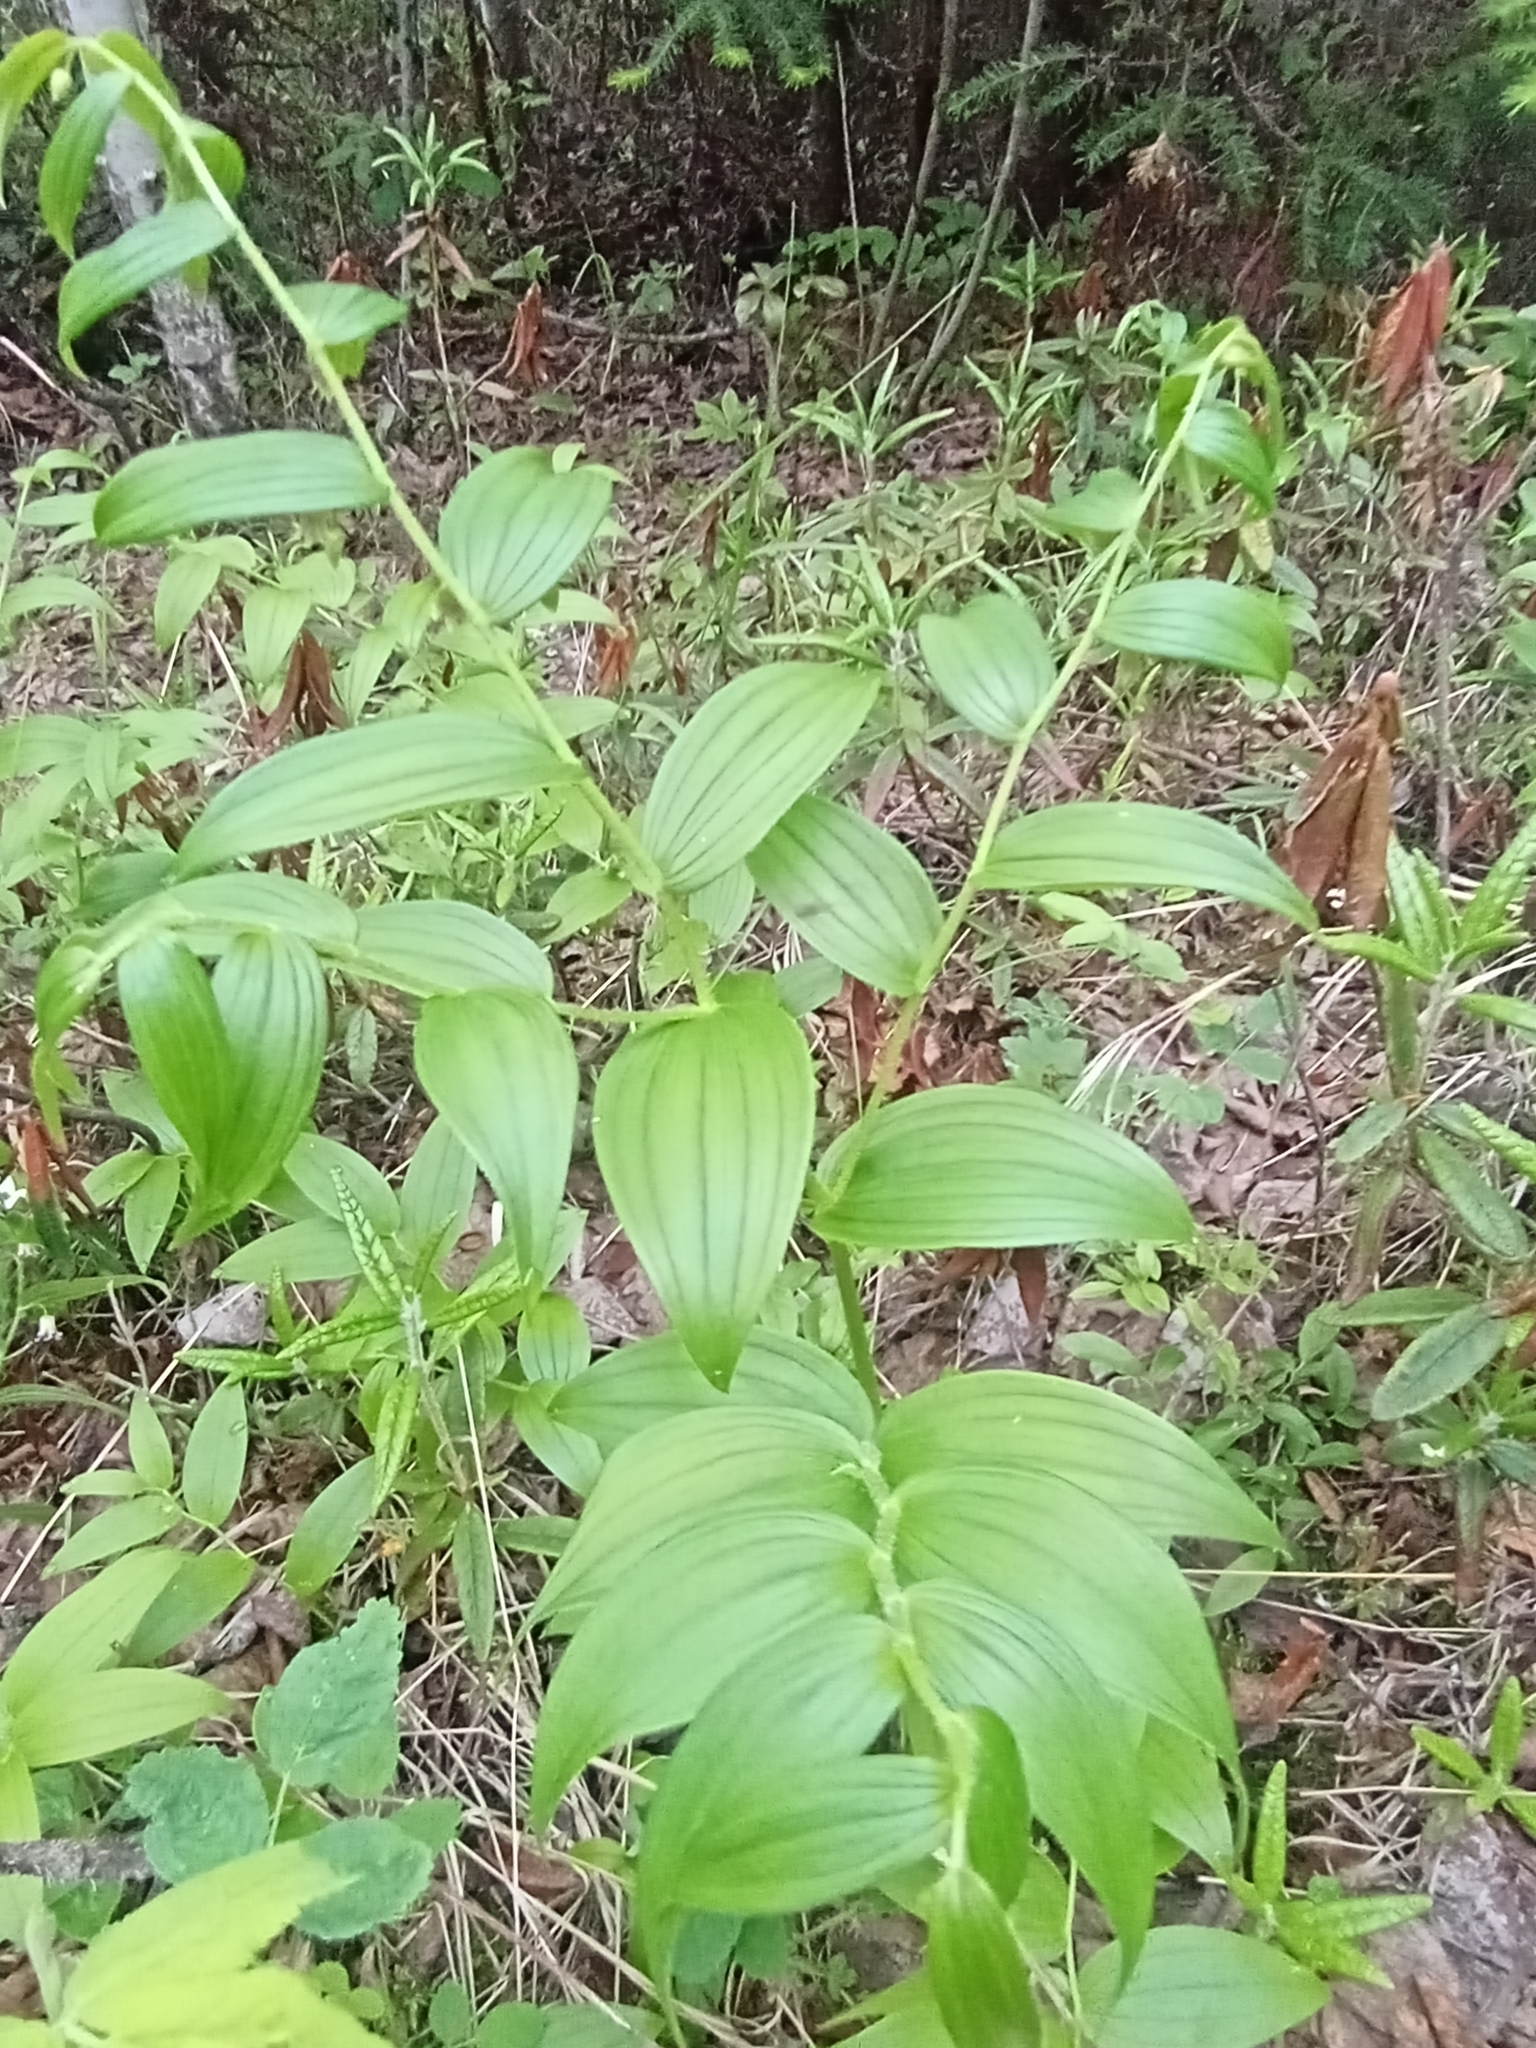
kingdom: Plantae
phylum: Tracheophyta
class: Liliopsida
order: Liliales
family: Liliaceae
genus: Streptopus
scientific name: Streptopus lanceolatus
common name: Rose mandarin
